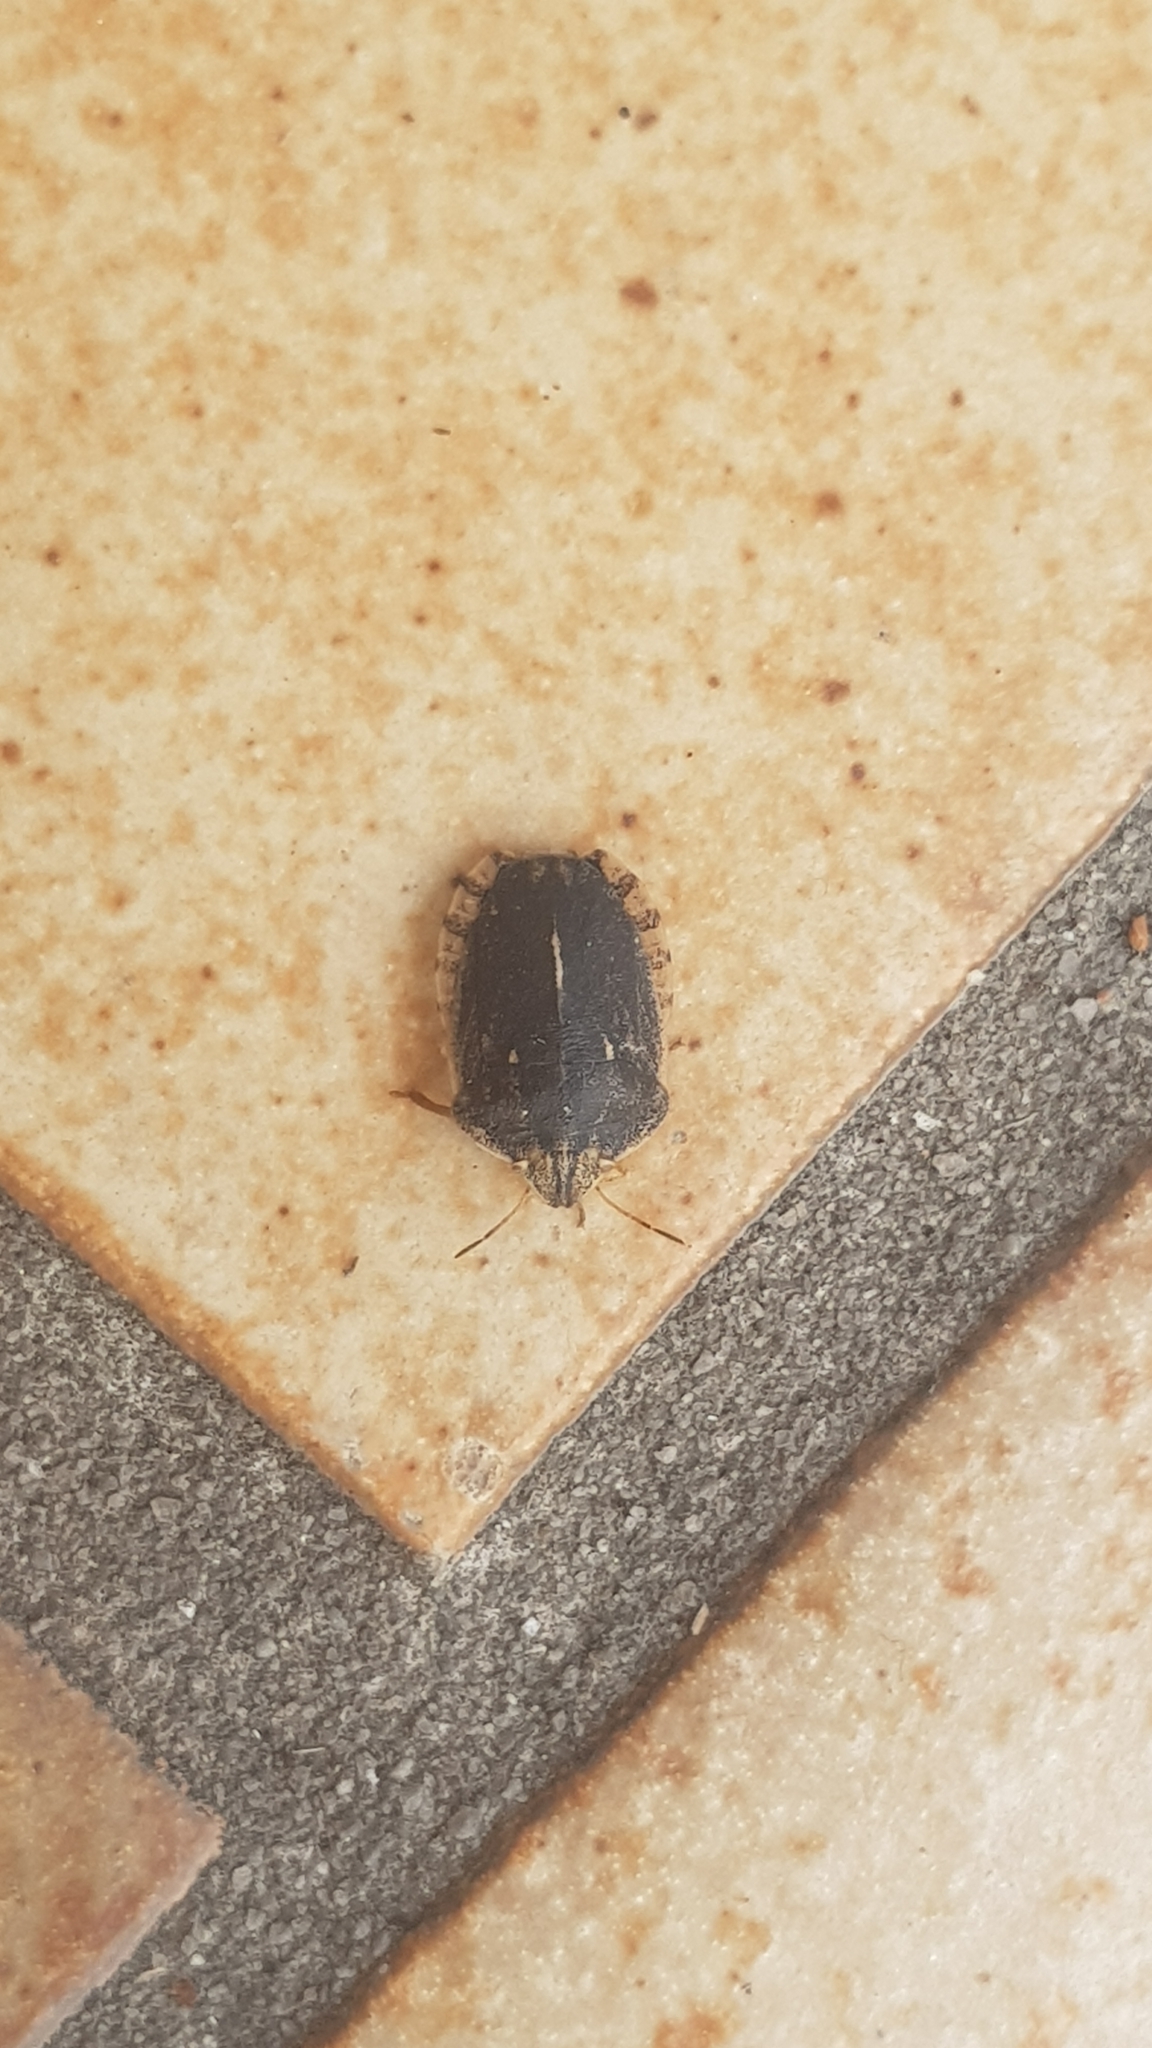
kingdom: Animalia
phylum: Arthropoda
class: Insecta
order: Hemiptera
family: Scutelleridae
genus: Eurygaster
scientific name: Eurygaster austriaca
